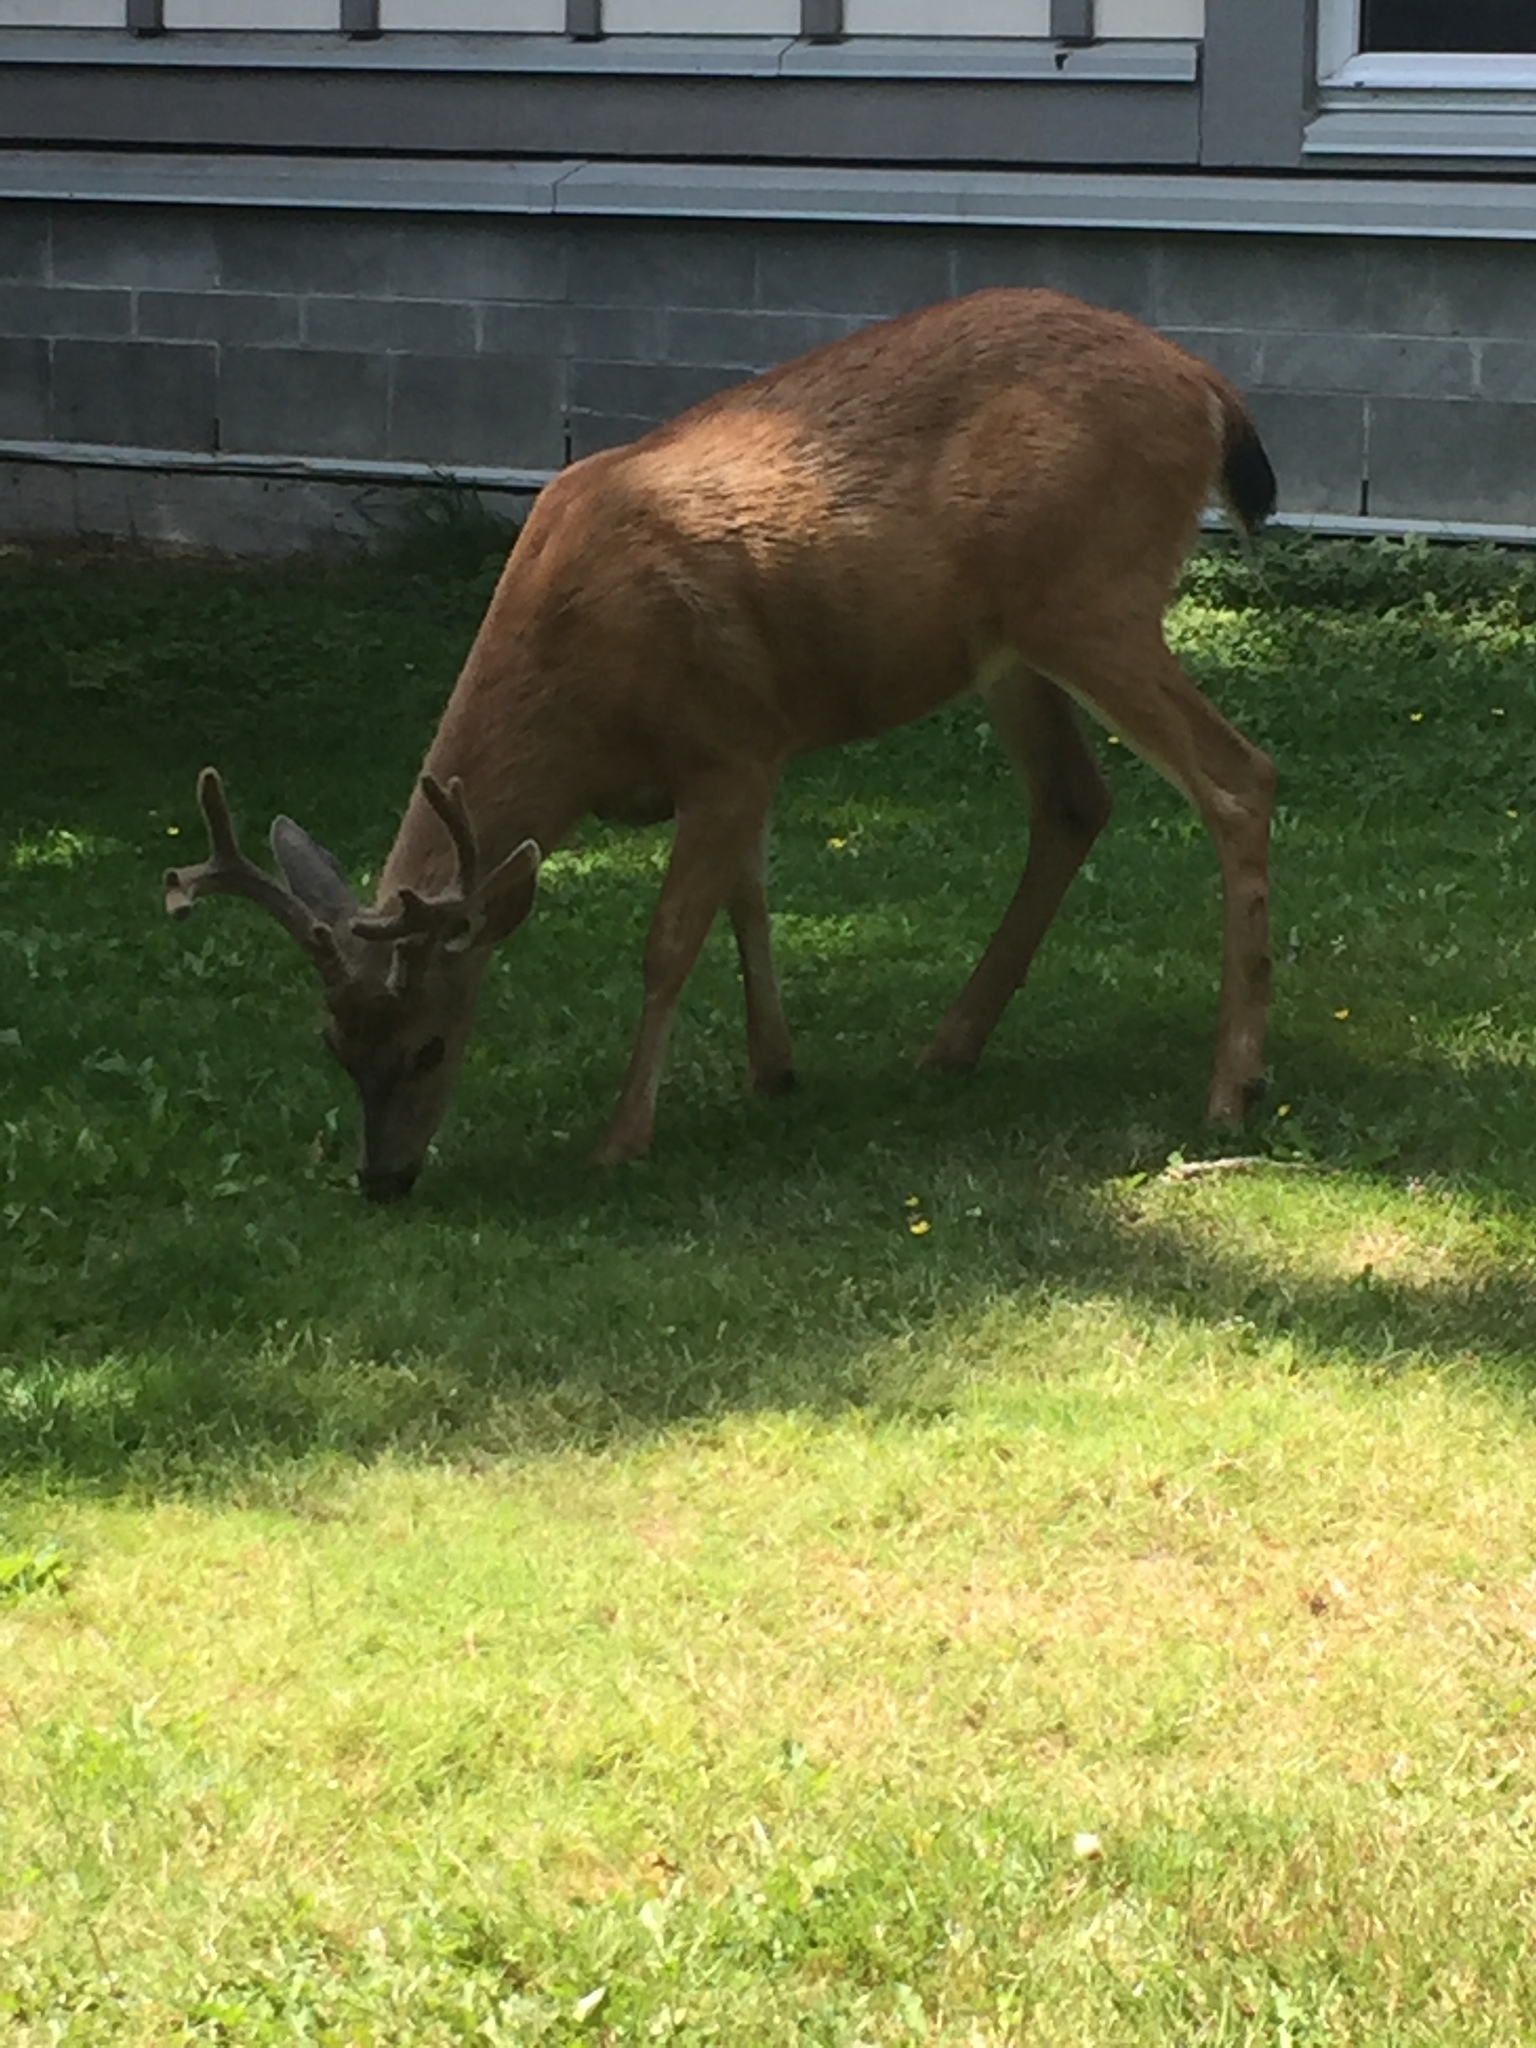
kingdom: Animalia
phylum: Chordata
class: Mammalia
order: Artiodactyla
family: Cervidae
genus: Odocoileus
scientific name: Odocoileus hemionus
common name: Mule deer
